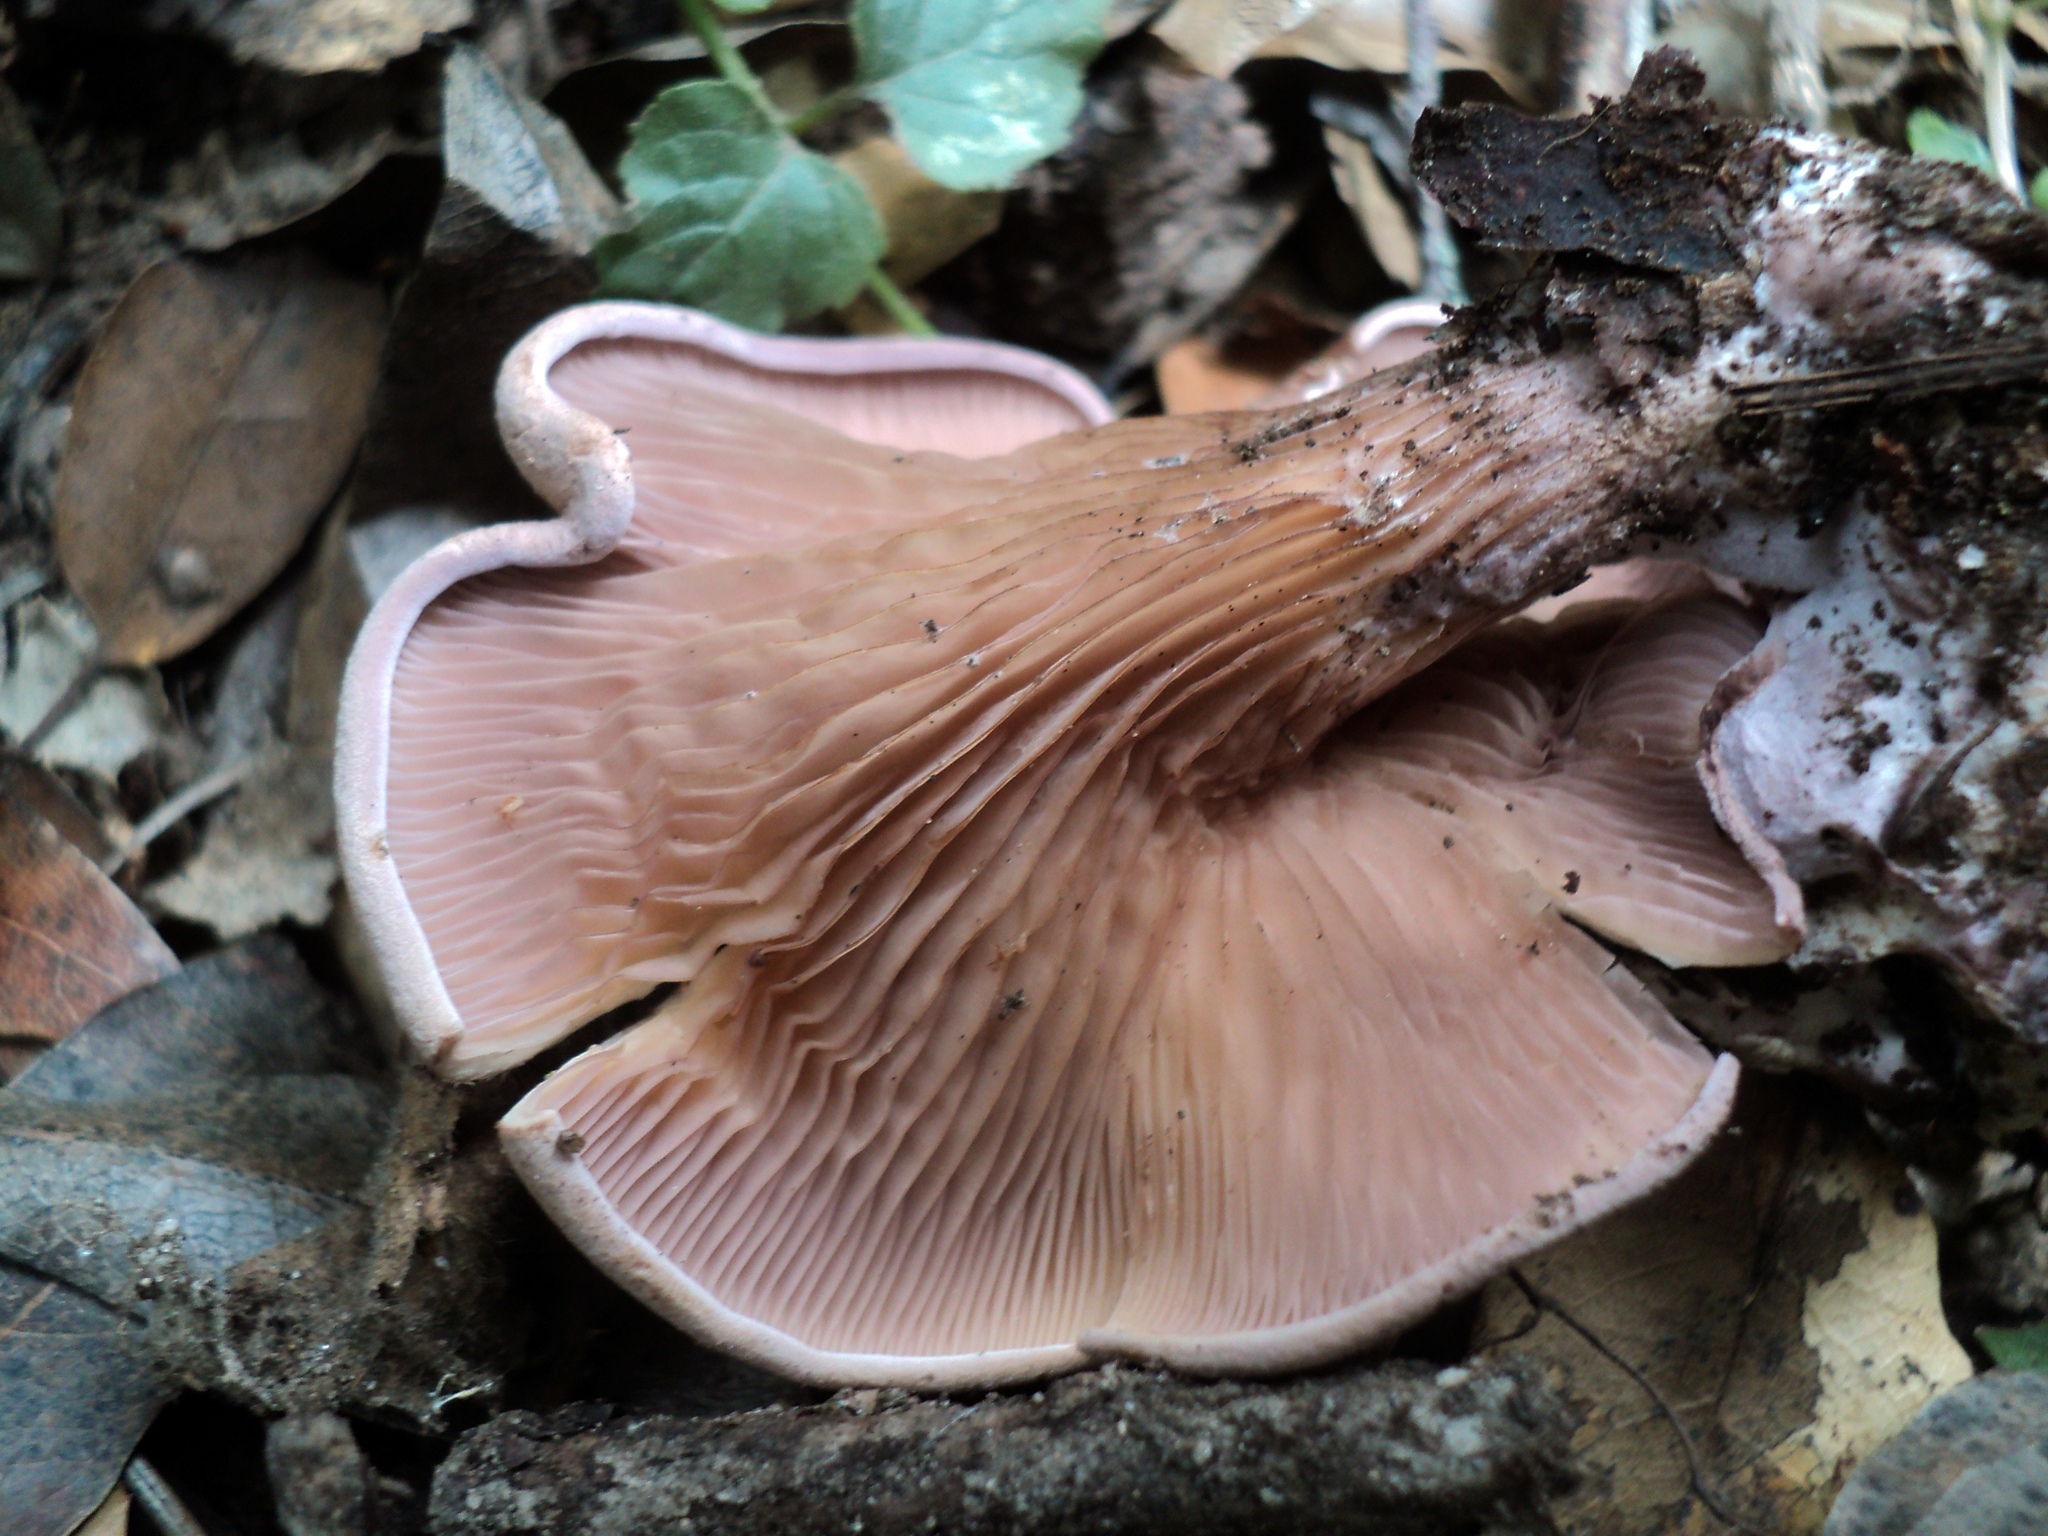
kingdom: Fungi
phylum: Basidiomycota
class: Agaricomycetes
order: Polyporales
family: Panaceae
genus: Panus
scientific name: Panus conchatus
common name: Lilac oysterling
